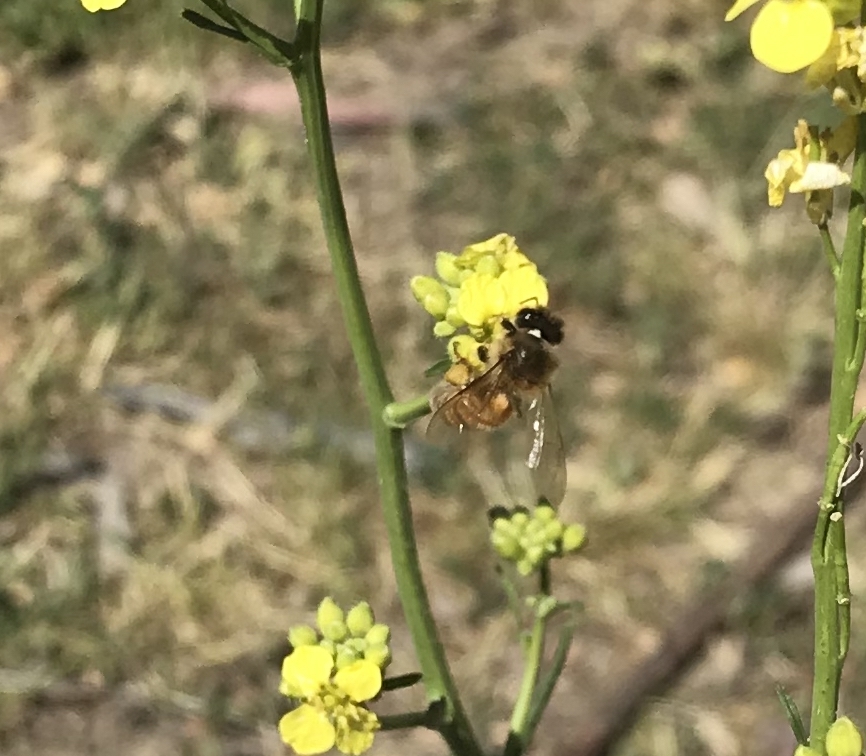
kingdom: Animalia
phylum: Arthropoda
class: Insecta
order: Hymenoptera
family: Apidae
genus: Apis
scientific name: Apis mellifera
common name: Honey bee
